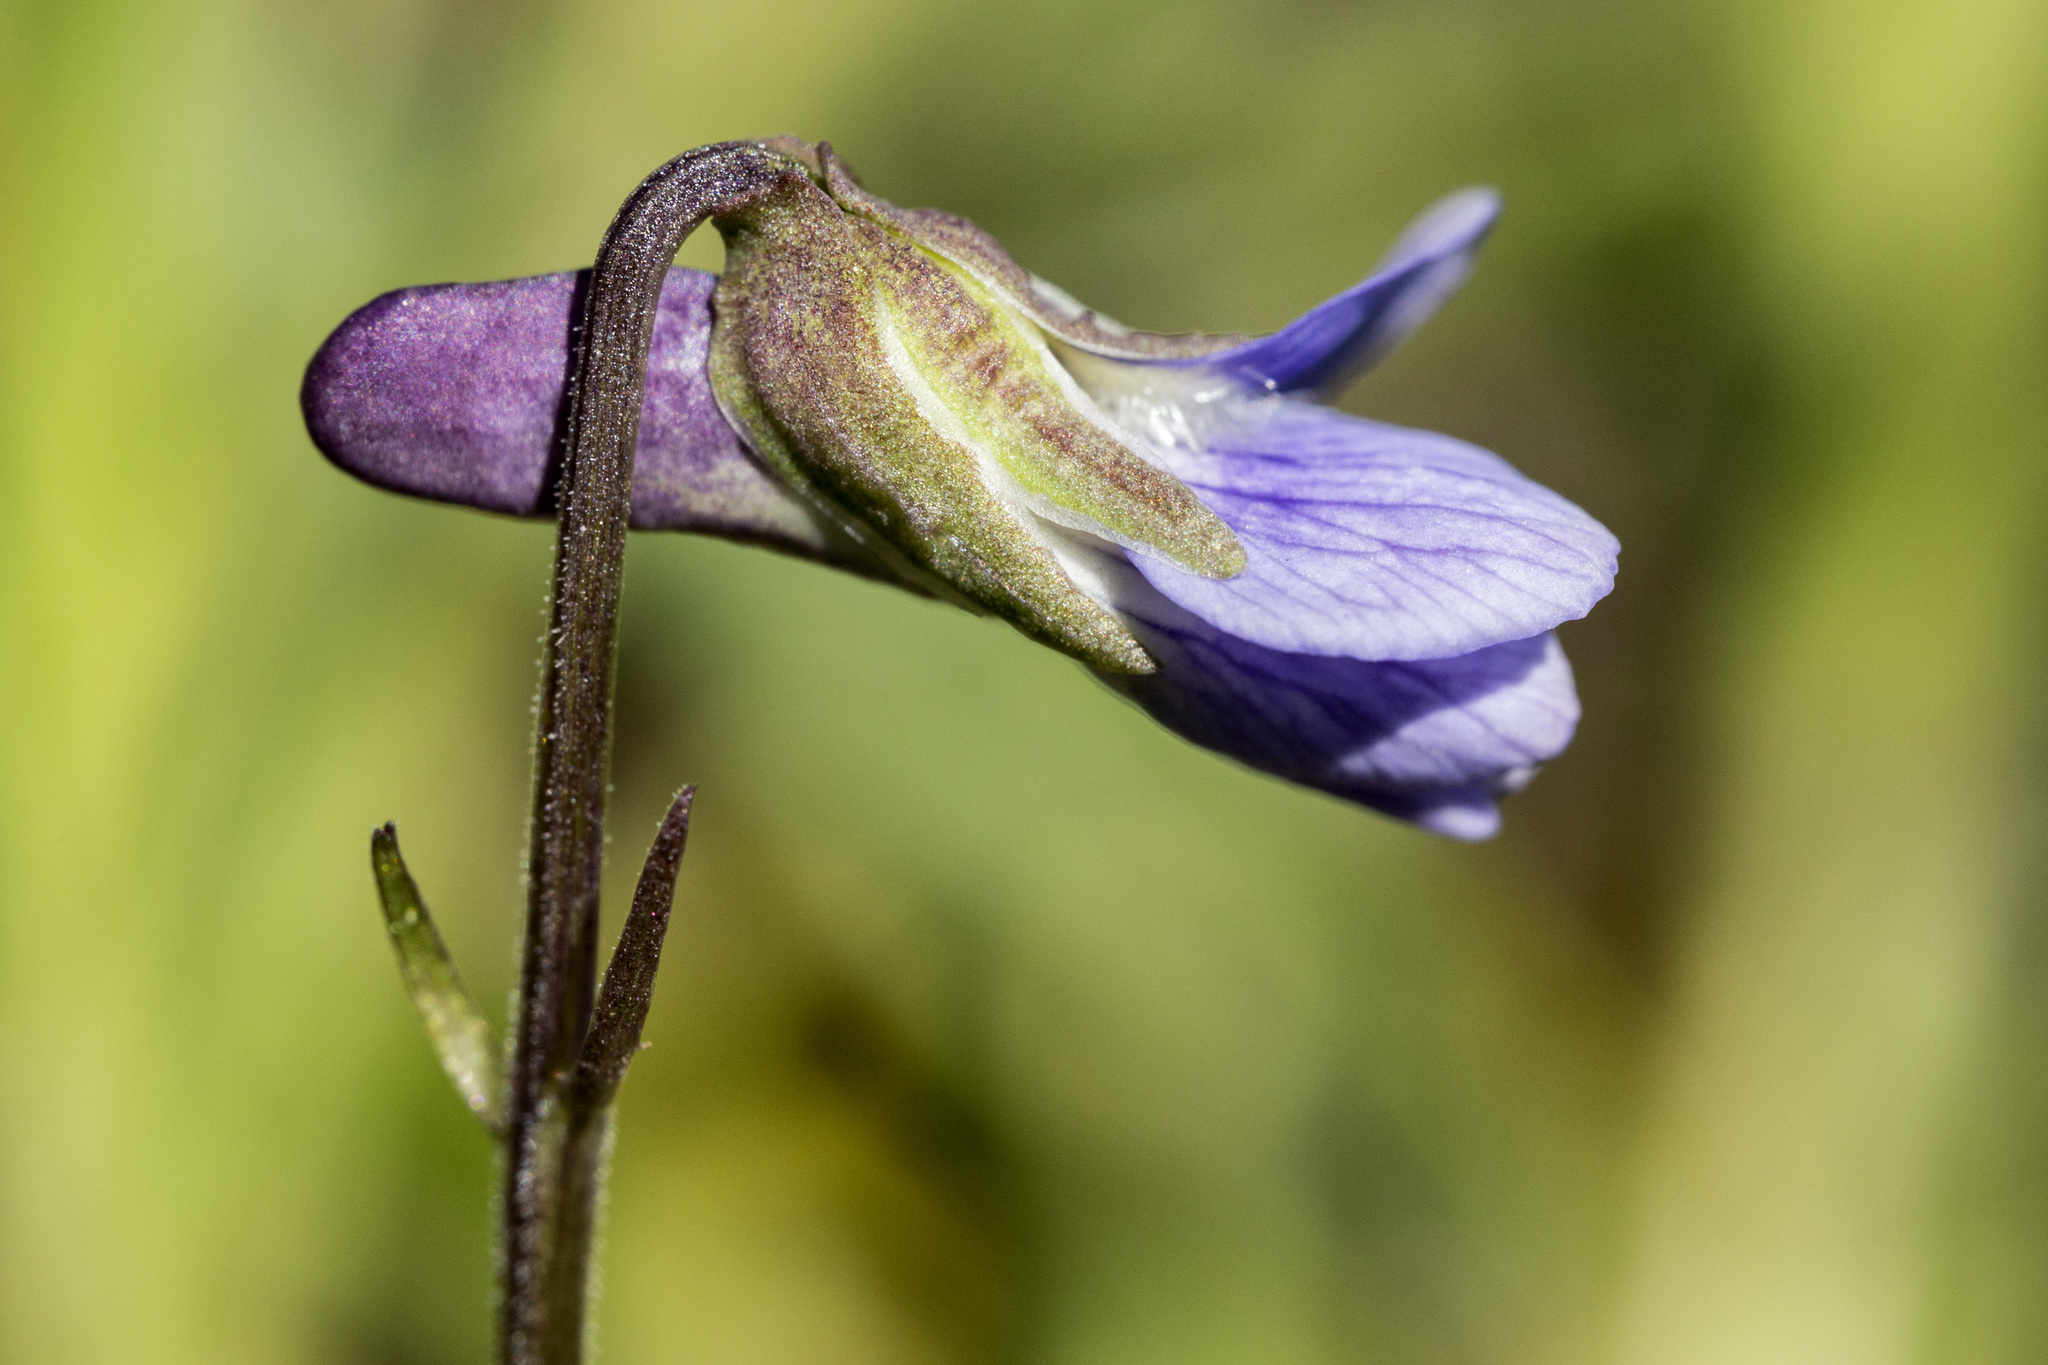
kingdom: Plantae
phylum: Tracheophyta
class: Magnoliopsida
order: Malpighiales
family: Violaceae
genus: Viola
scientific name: Viola adunca
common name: Sand violet
